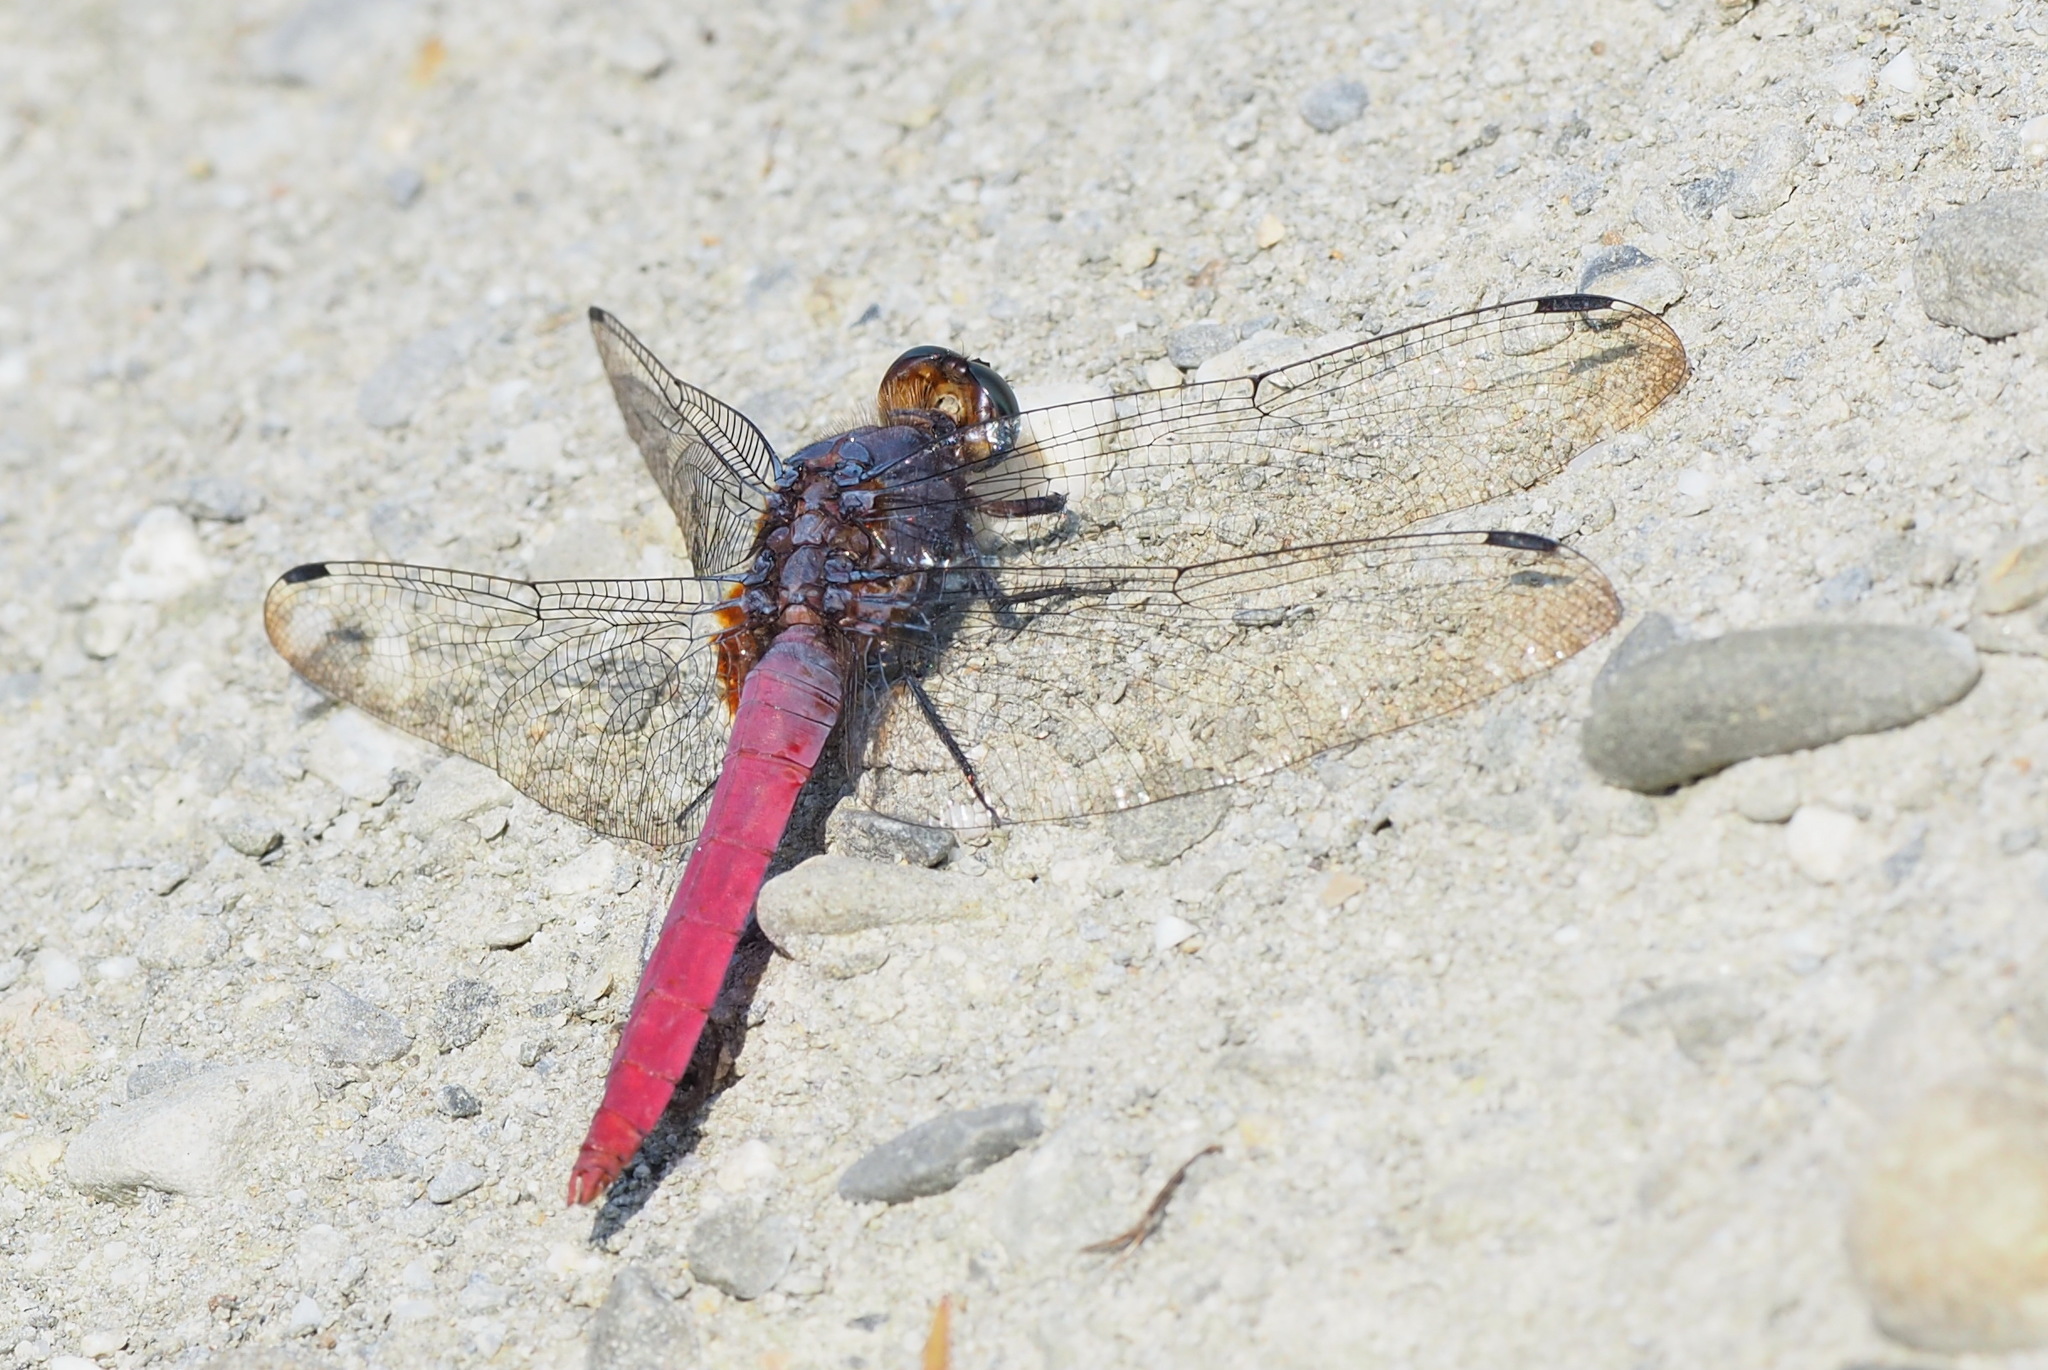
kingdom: Animalia
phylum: Arthropoda
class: Insecta
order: Odonata
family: Libellulidae
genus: Orthetrum
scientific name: Orthetrum pruinosum
